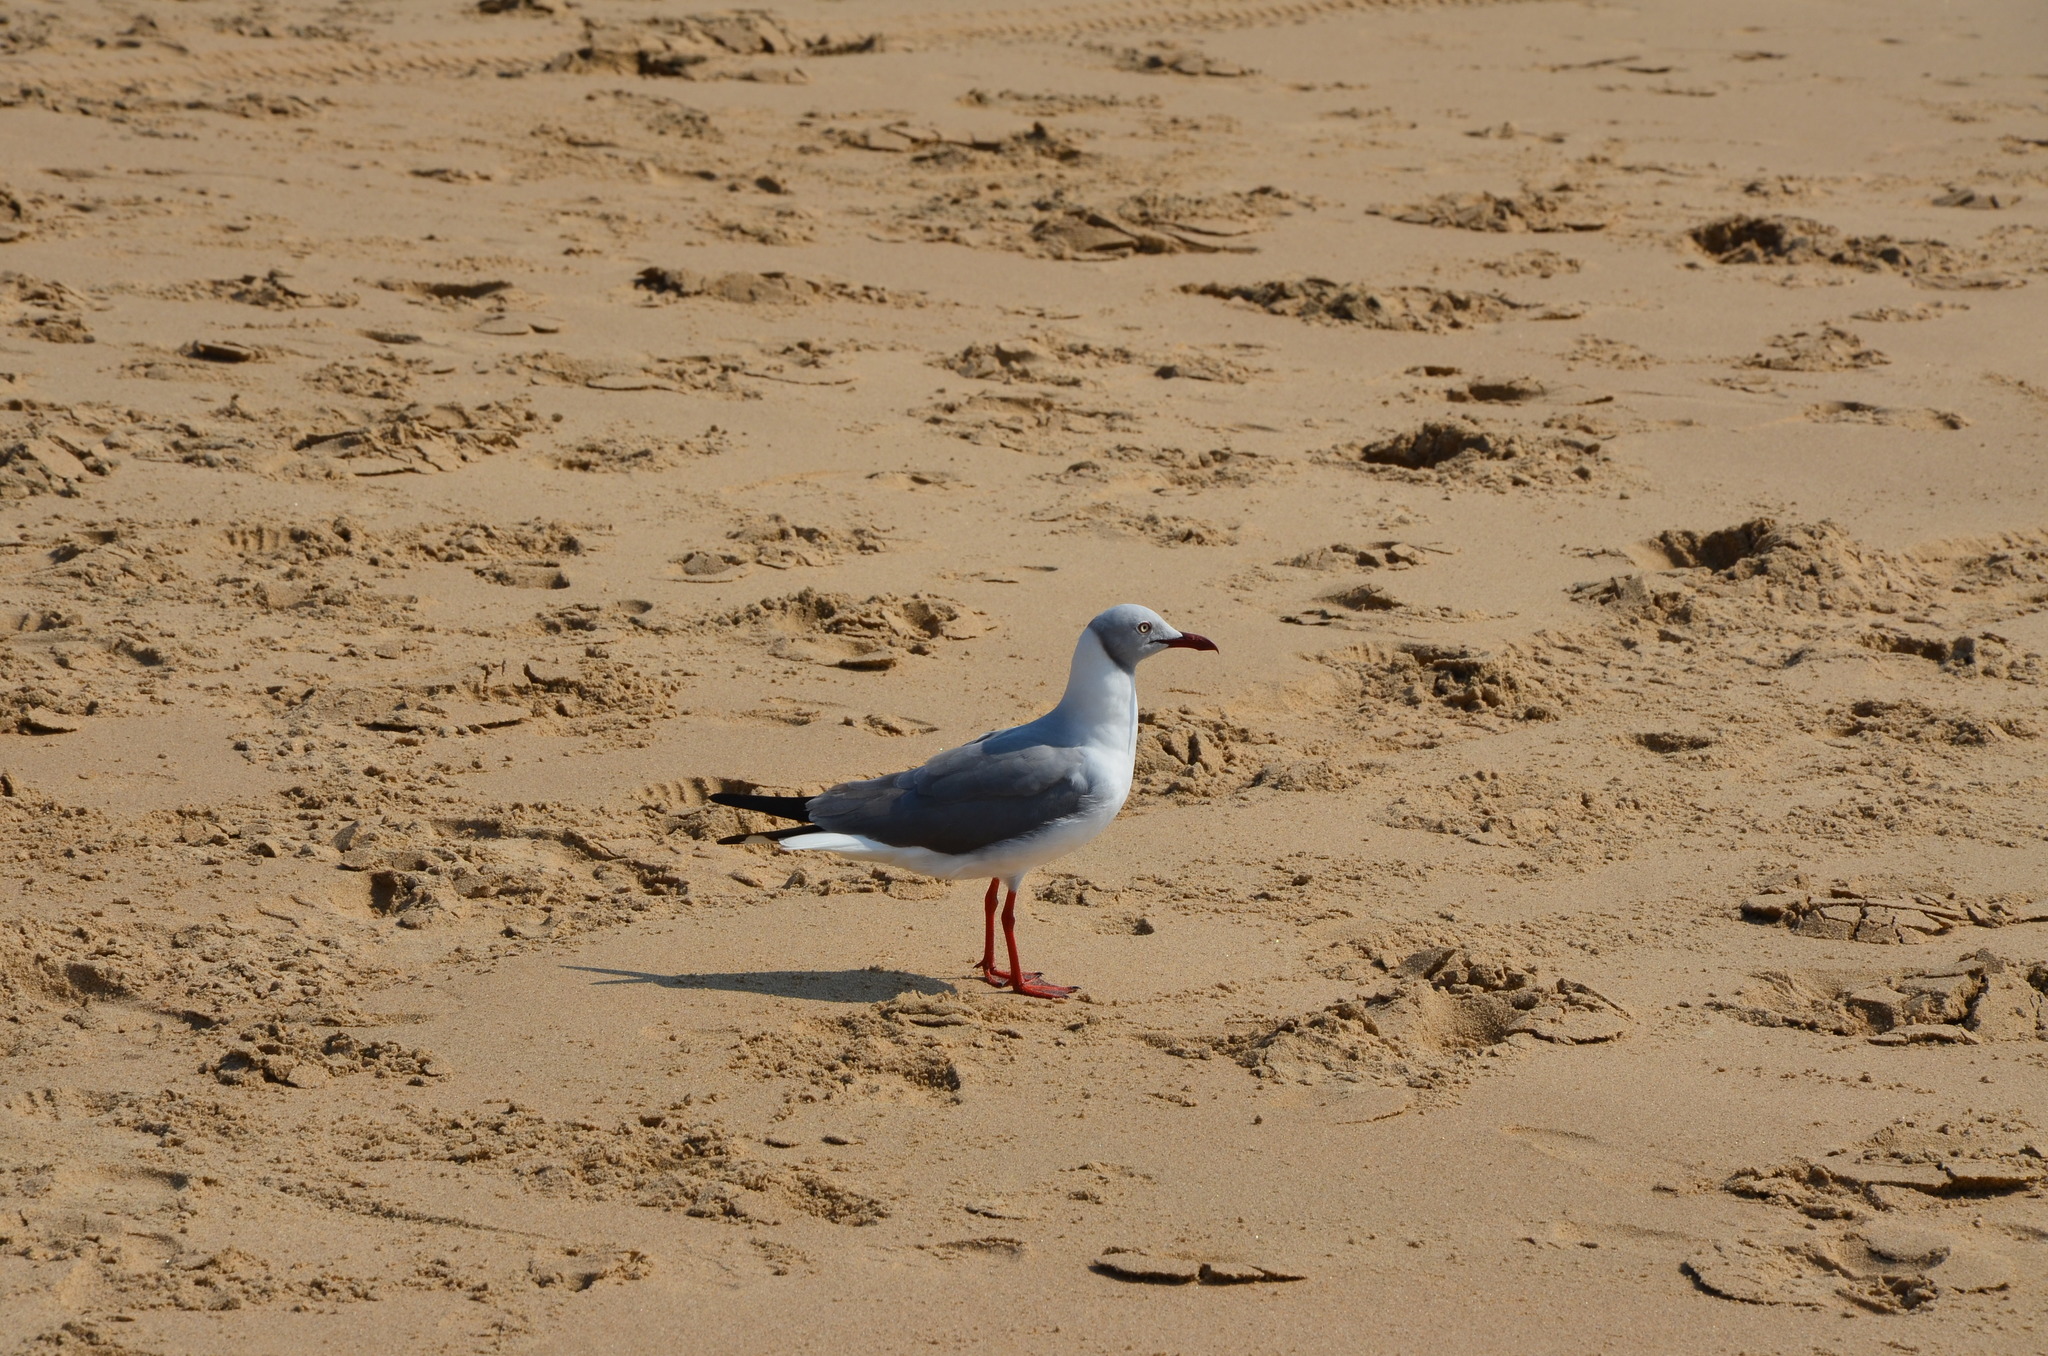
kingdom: Animalia
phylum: Chordata
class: Aves
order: Charadriiformes
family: Laridae
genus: Chroicocephalus
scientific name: Chroicocephalus cirrocephalus
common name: Grey-headed gull
